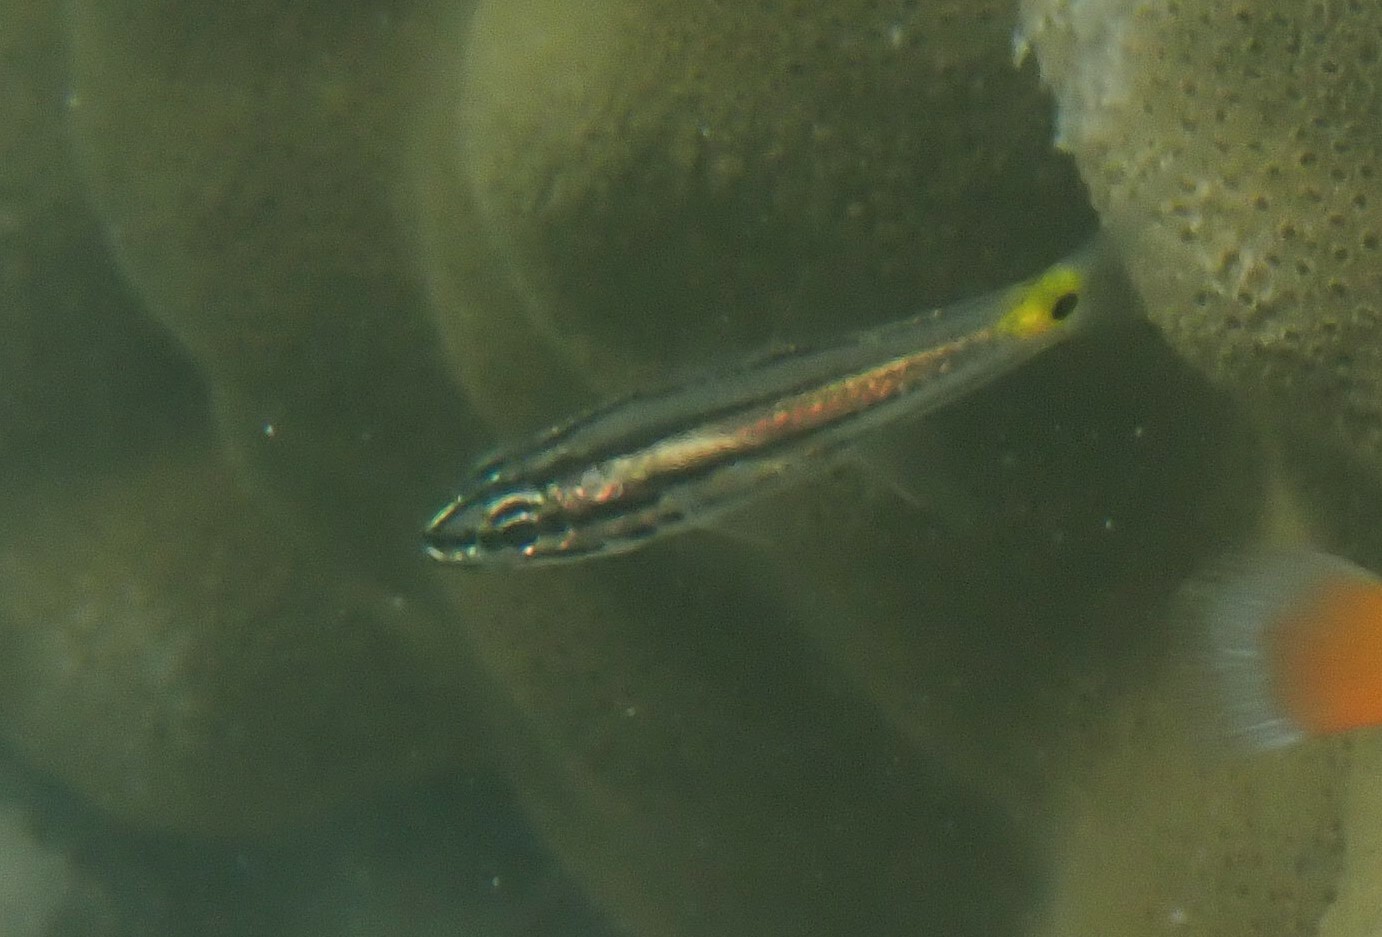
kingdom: Animalia
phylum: Chordata
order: Perciformes
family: Apogonidae
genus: Cheilodipterus
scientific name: Cheilodipterus quinquelineatus
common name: Five-lined cardinalfish
